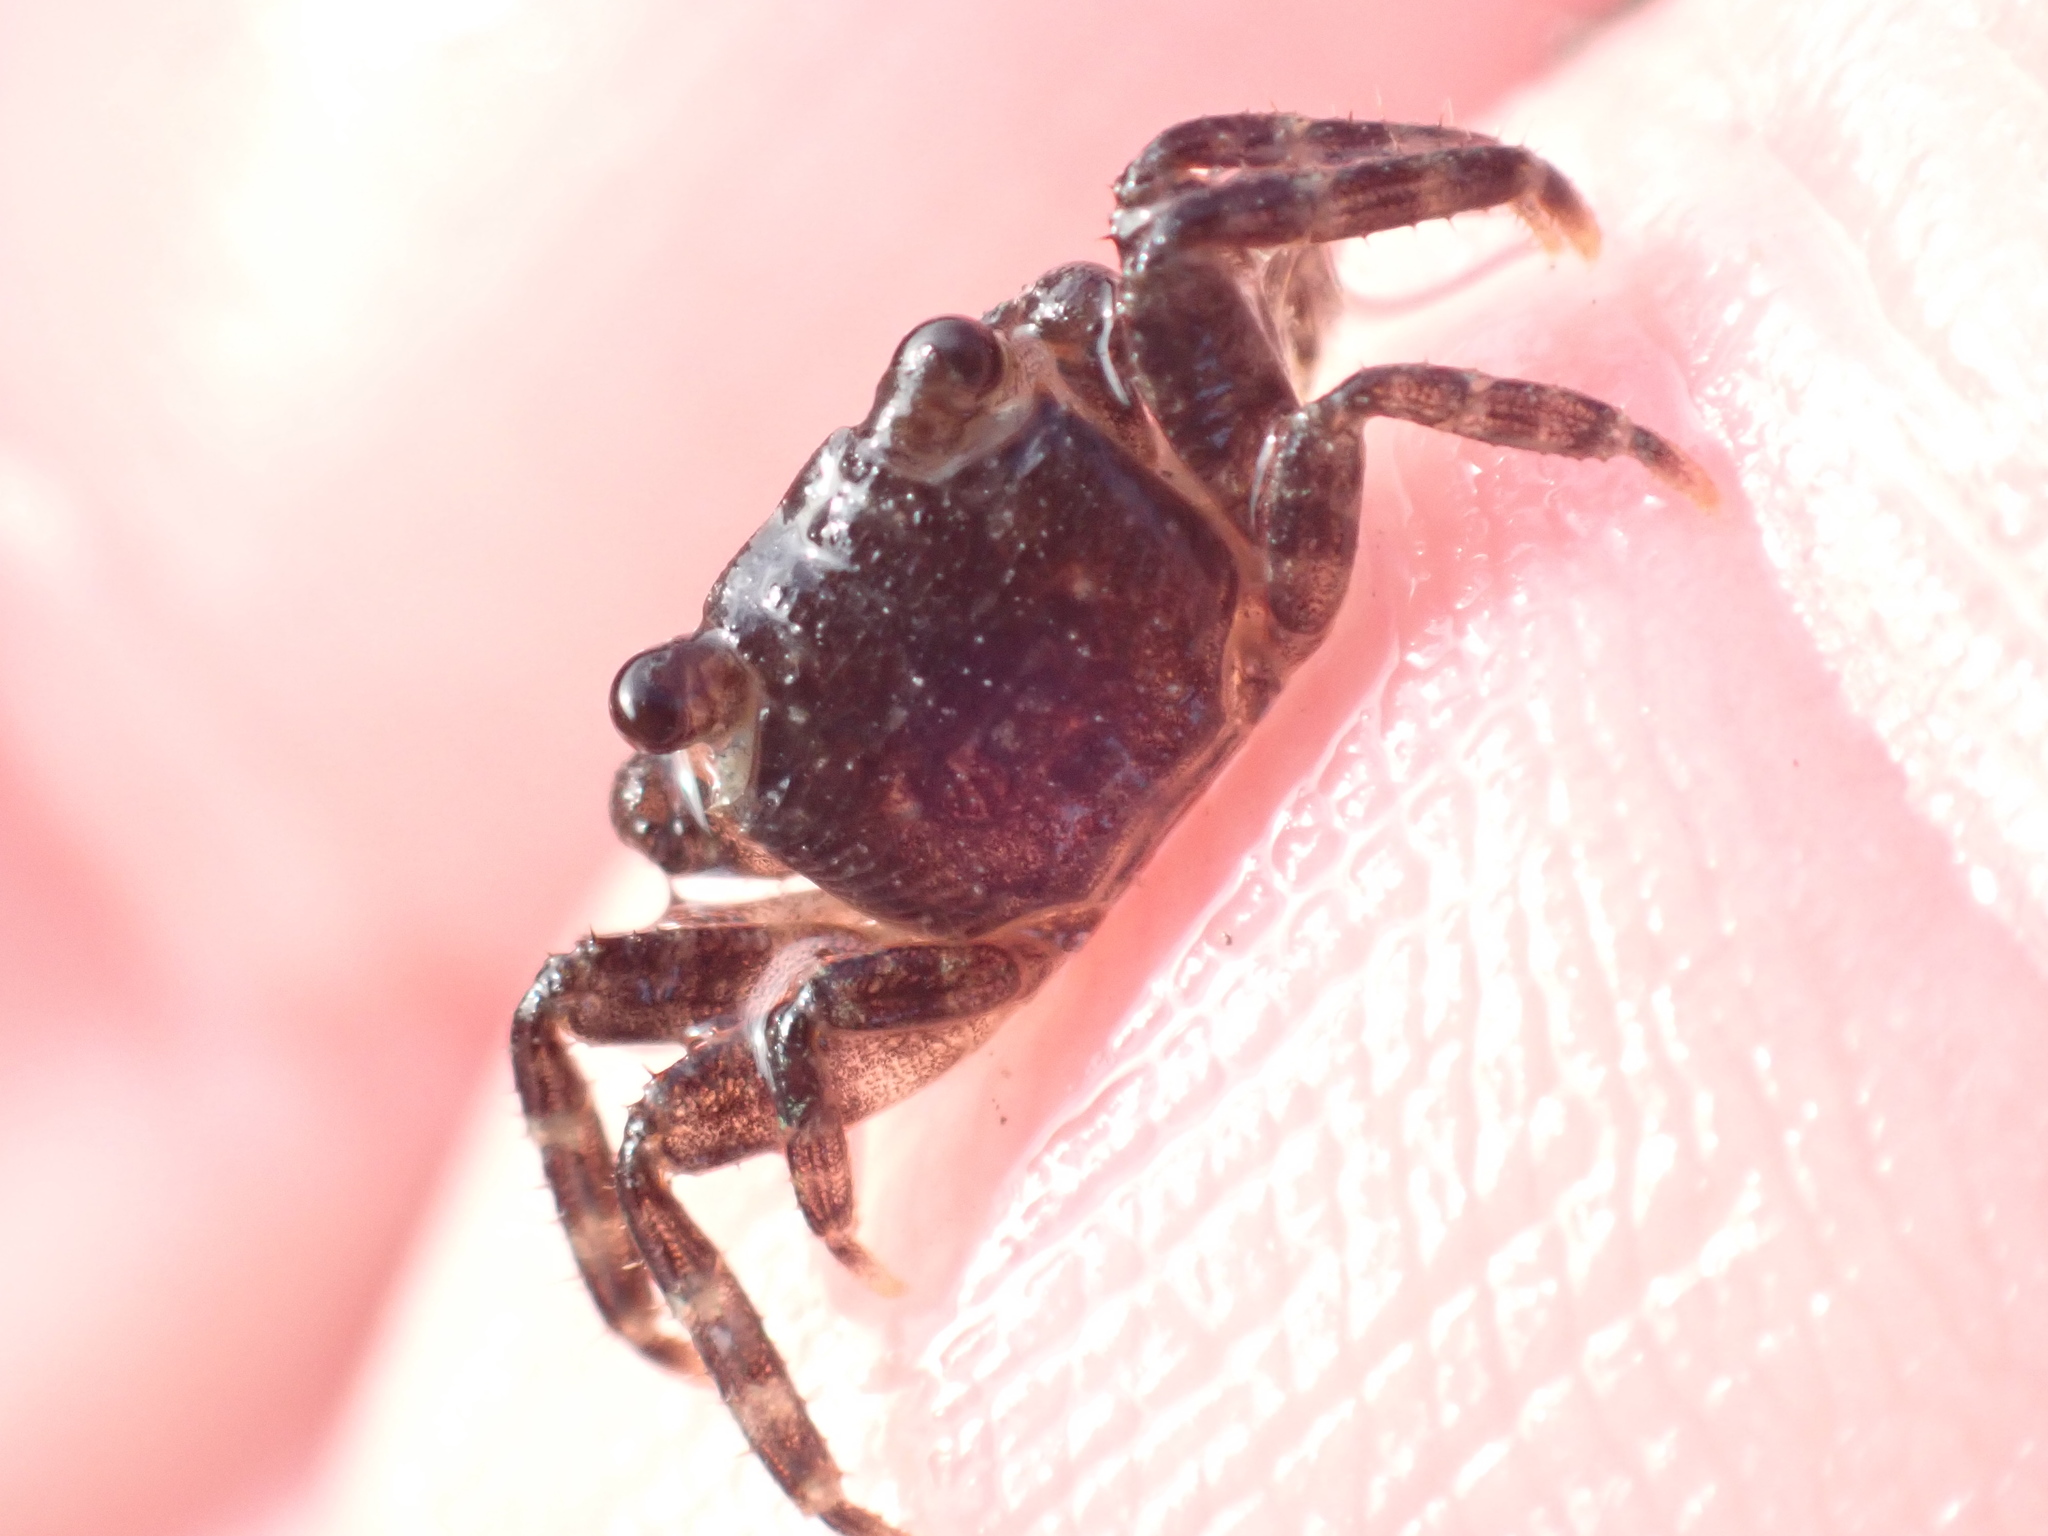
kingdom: Animalia
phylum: Arthropoda
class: Malacostraca
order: Decapoda
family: Grapsidae
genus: Leptograpsus
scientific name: Leptograpsus variegatus
